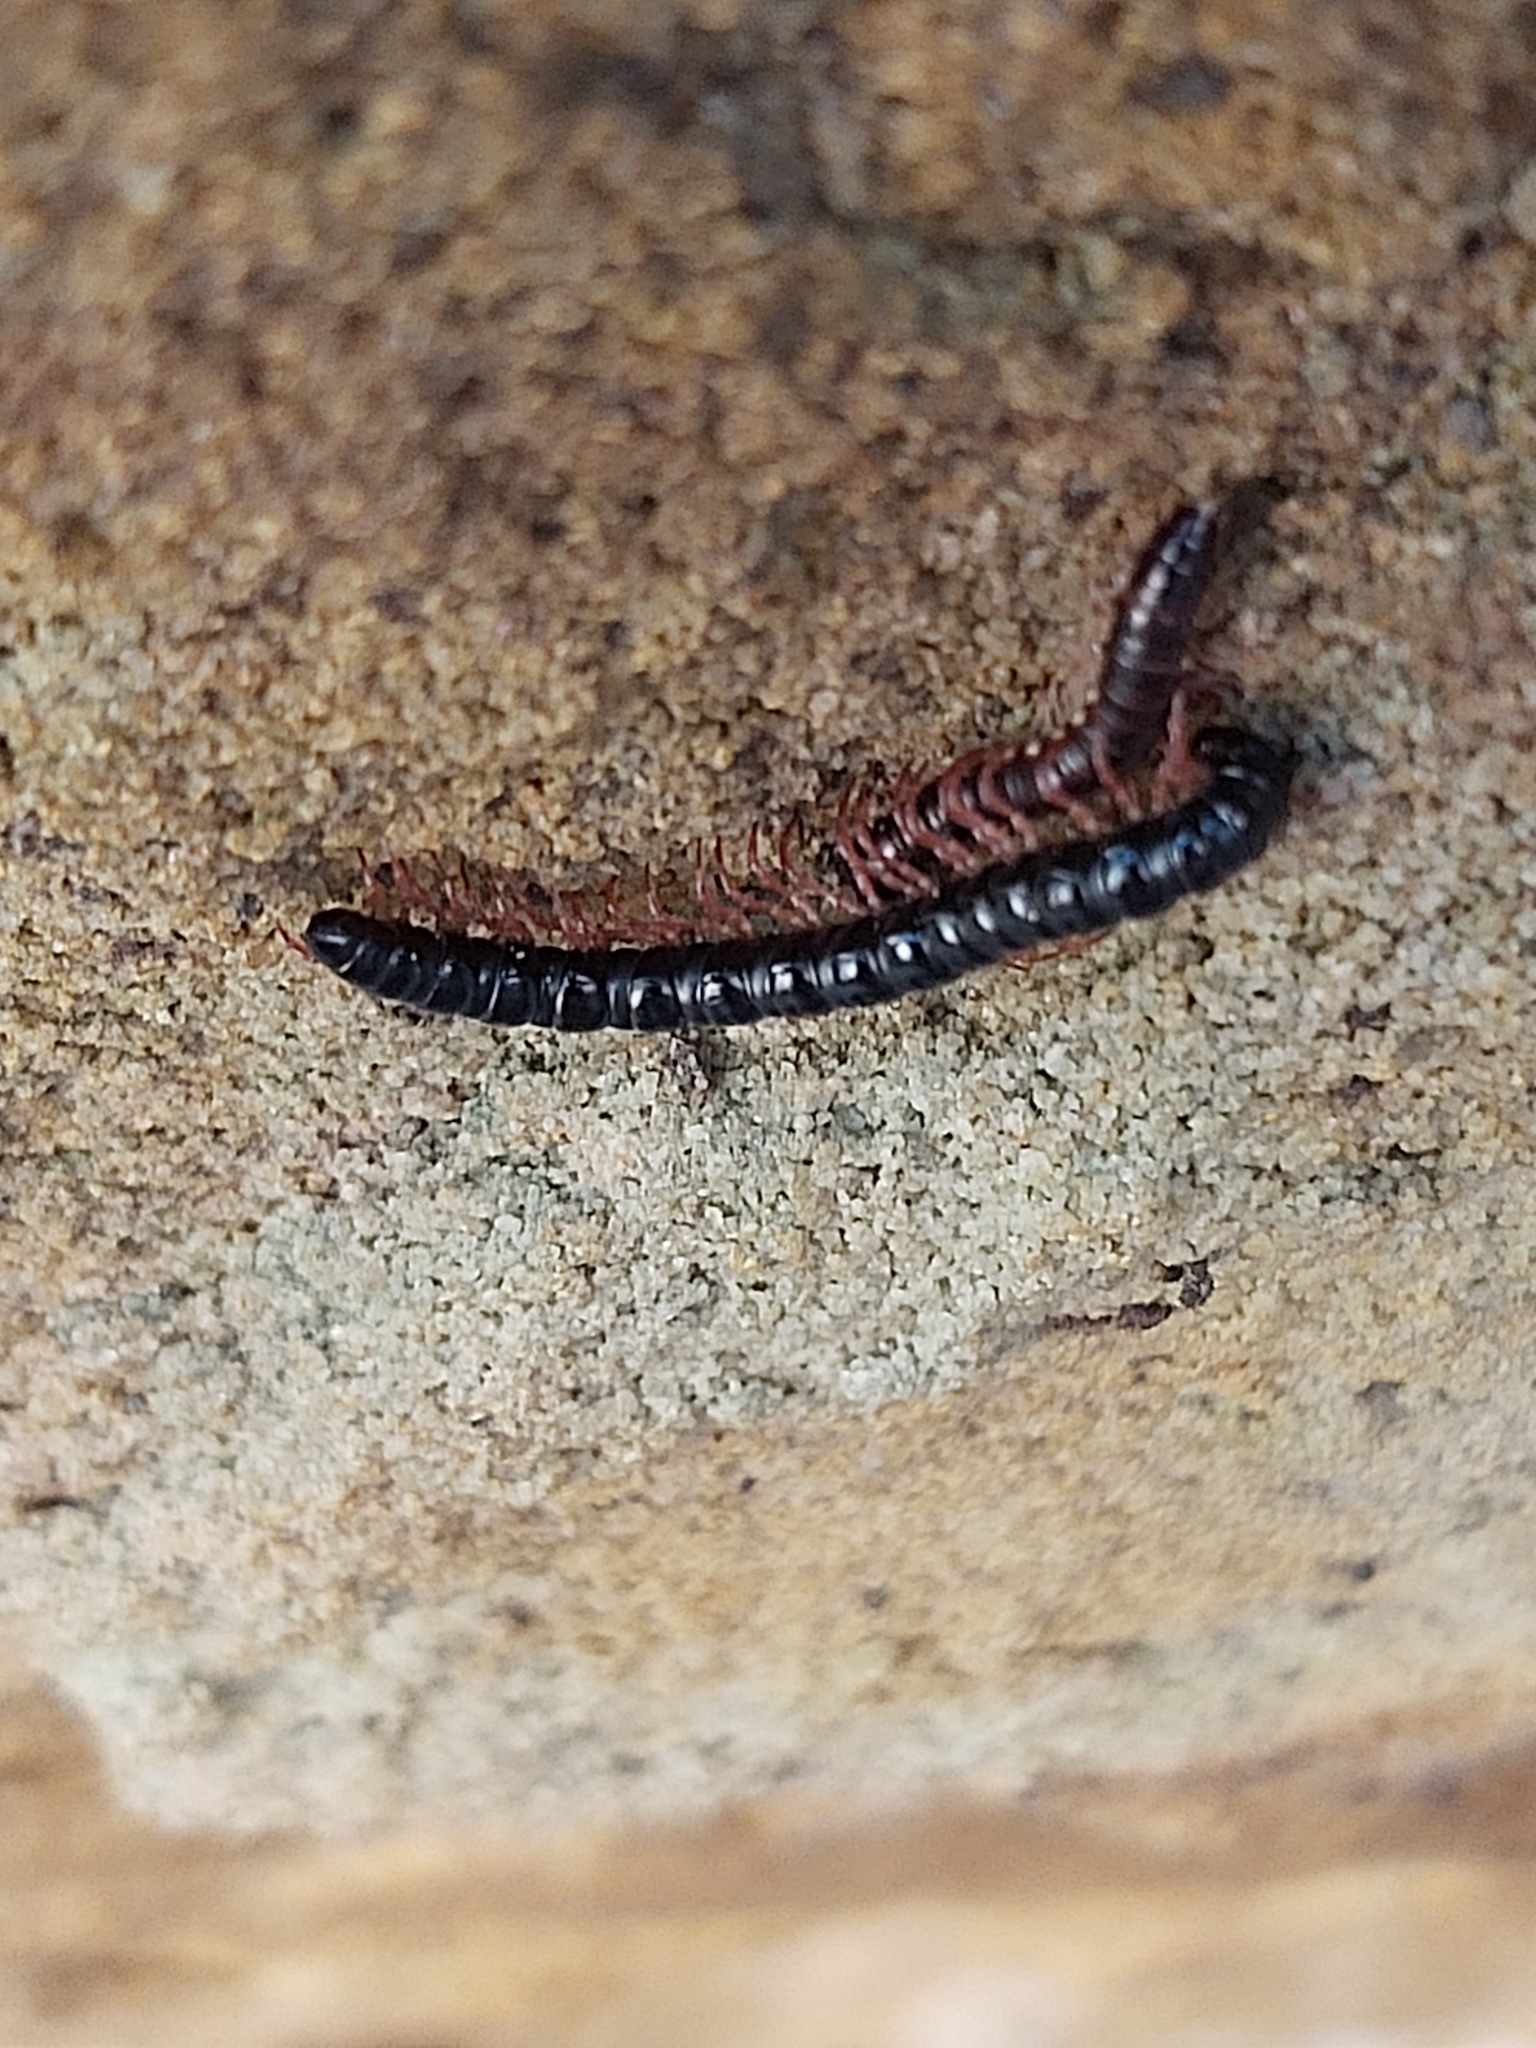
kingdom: Animalia
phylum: Arthropoda
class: Diplopoda
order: Polydesmida
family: Paradoxosomatidae
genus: Heterocladosoma
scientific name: Heterocladosoma
